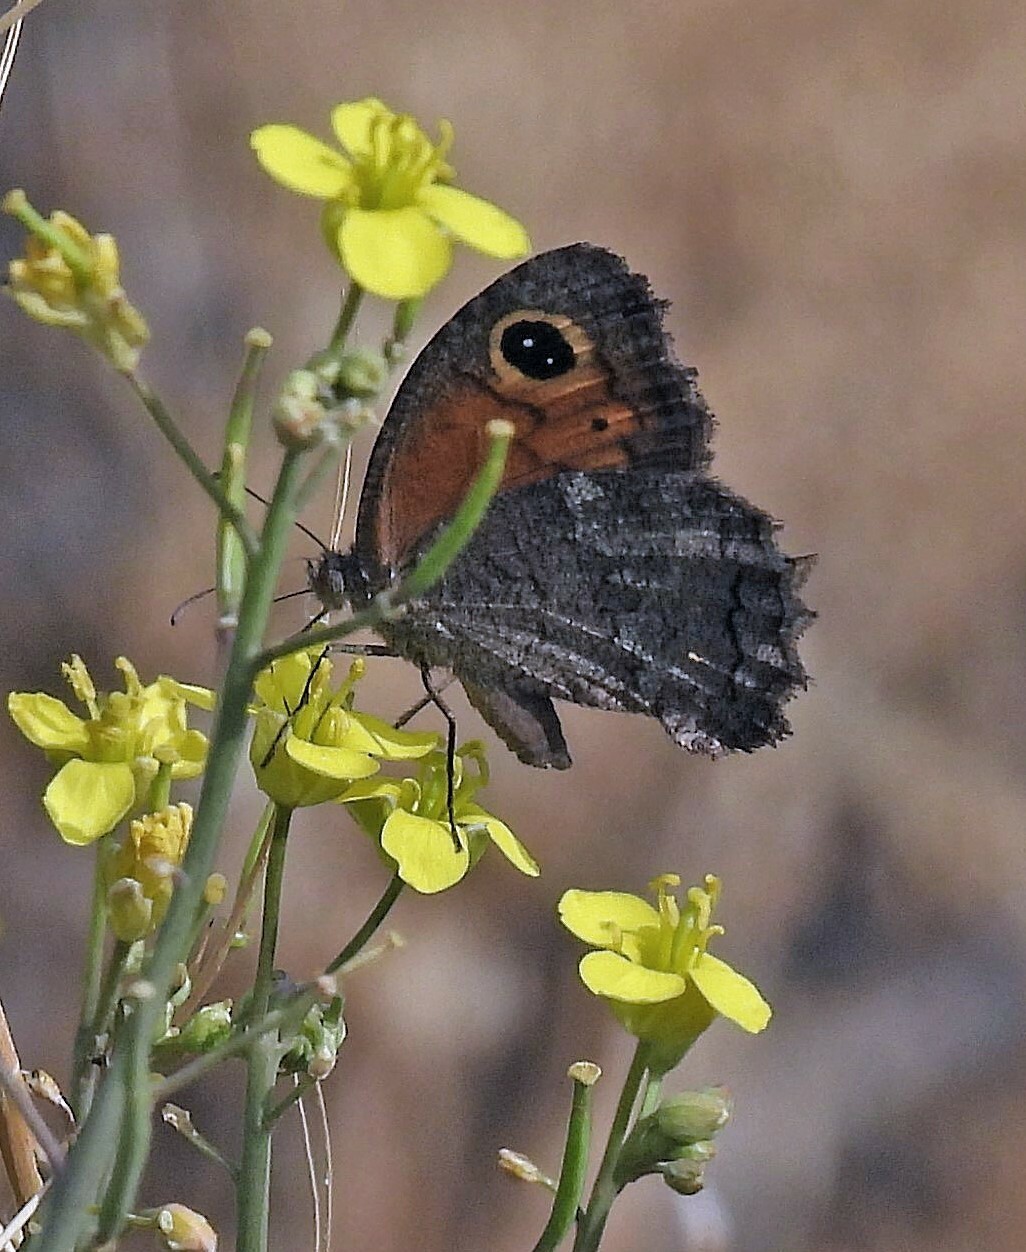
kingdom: Animalia
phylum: Arthropoda
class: Insecta
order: Lepidoptera
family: Nymphalidae
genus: Haywardella
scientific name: Haywardella edmondsii
